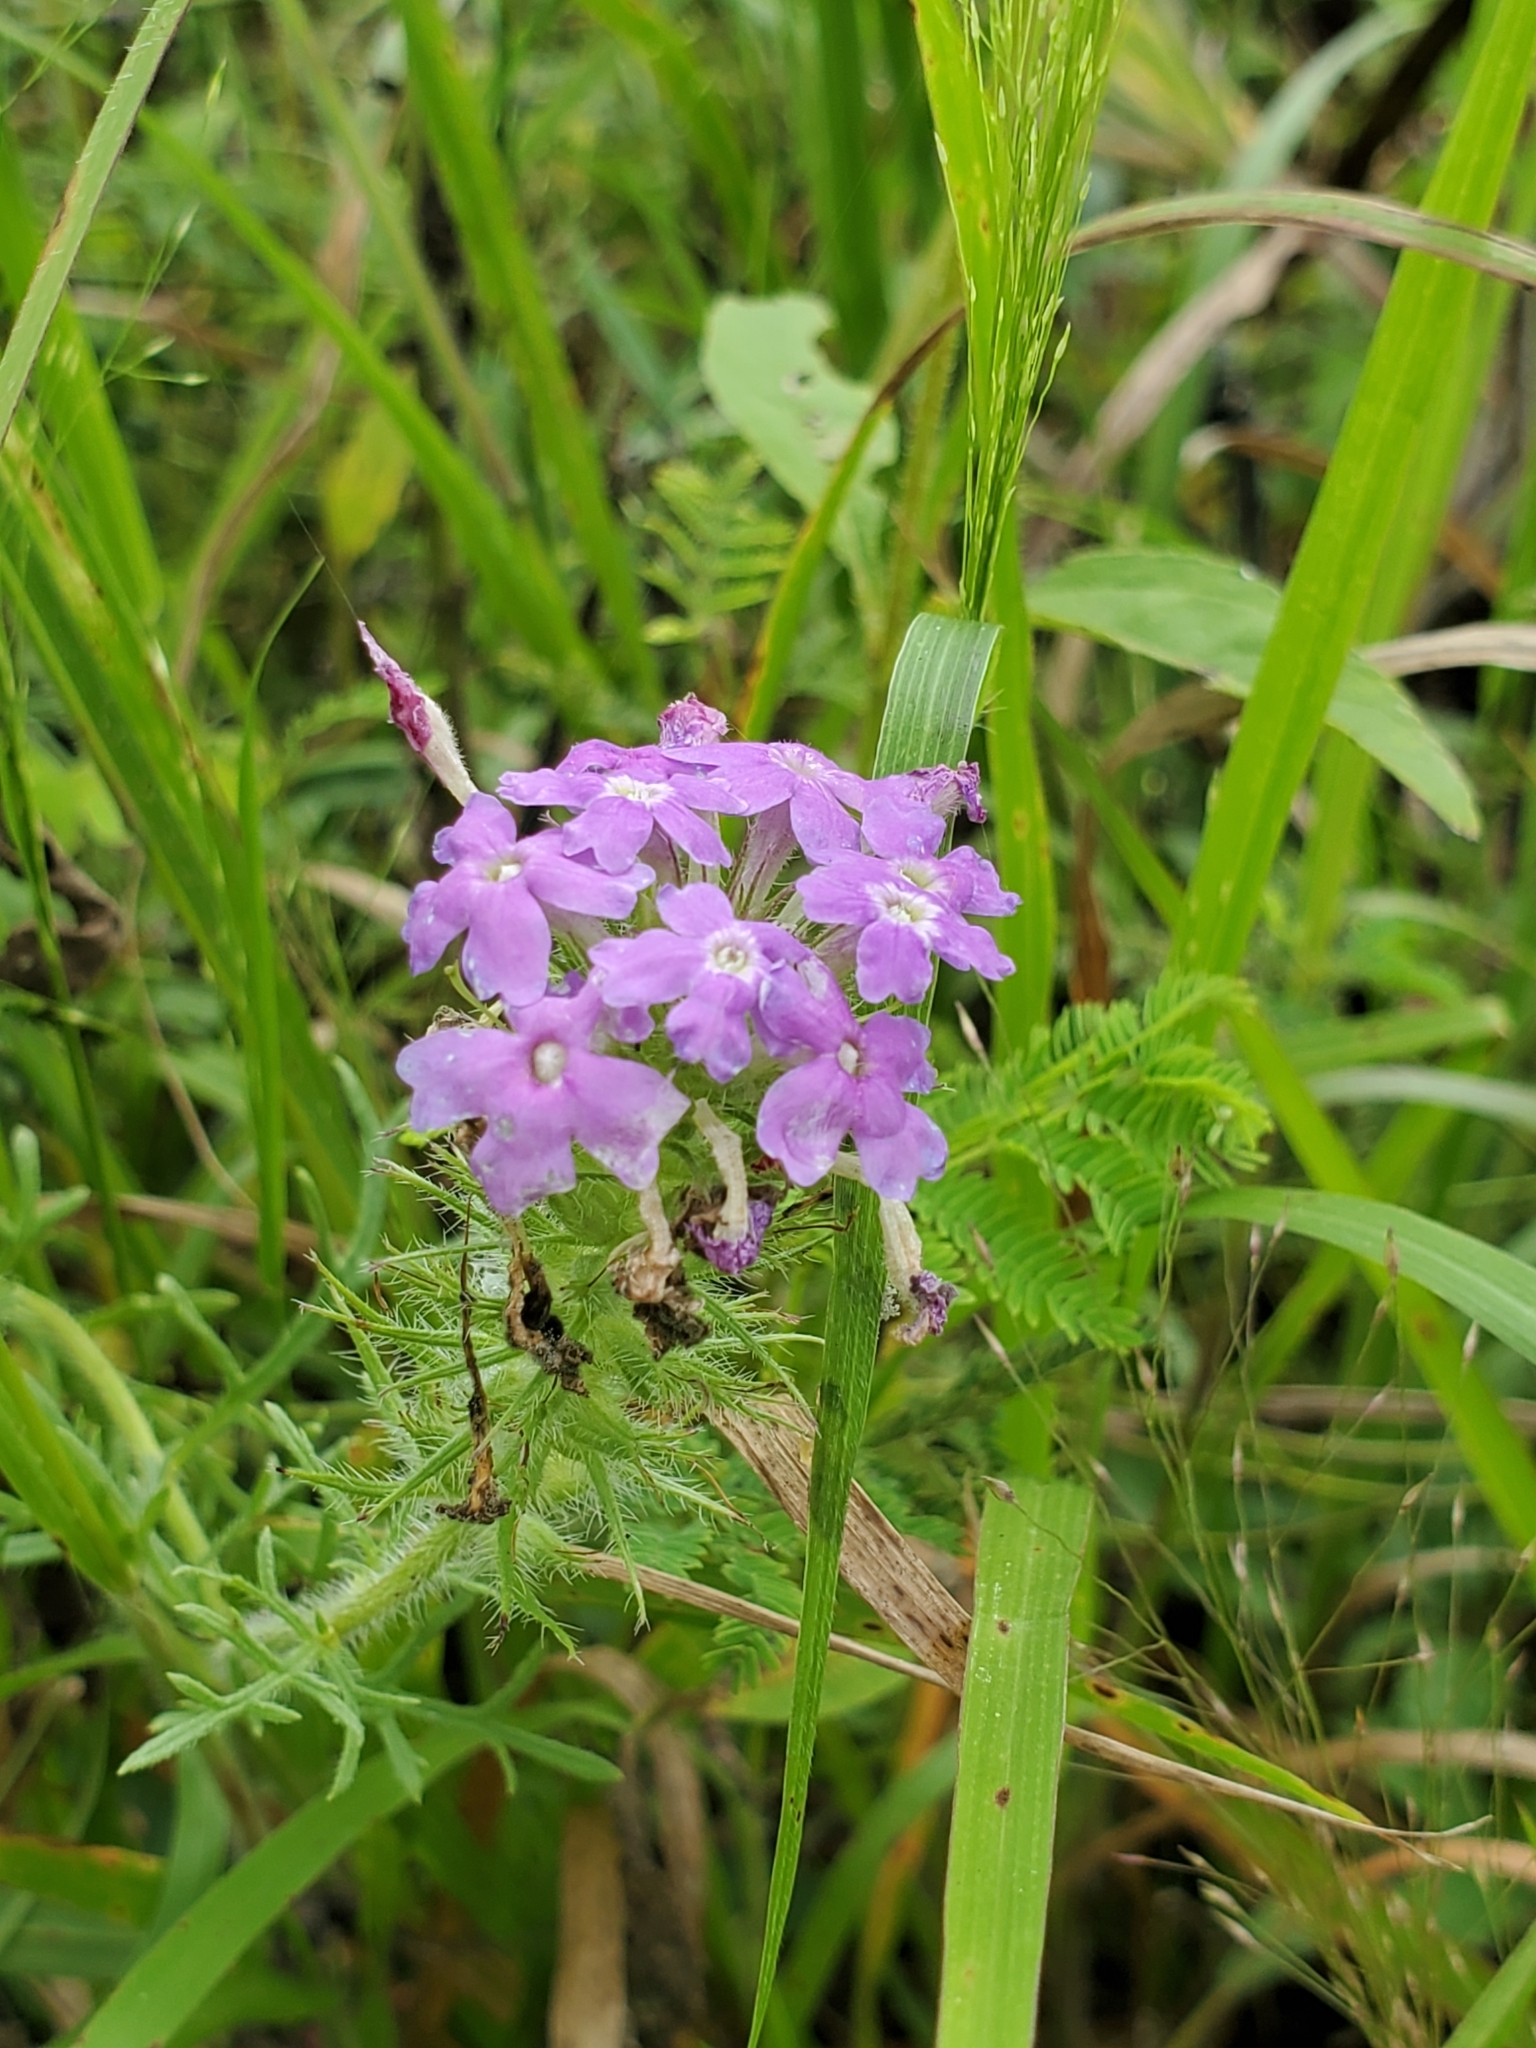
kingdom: Plantae
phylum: Tracheophyta
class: Magnoliopsida
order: Lamiales
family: Verbenaceae
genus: Verbena
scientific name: Verbena bipinnatifida
